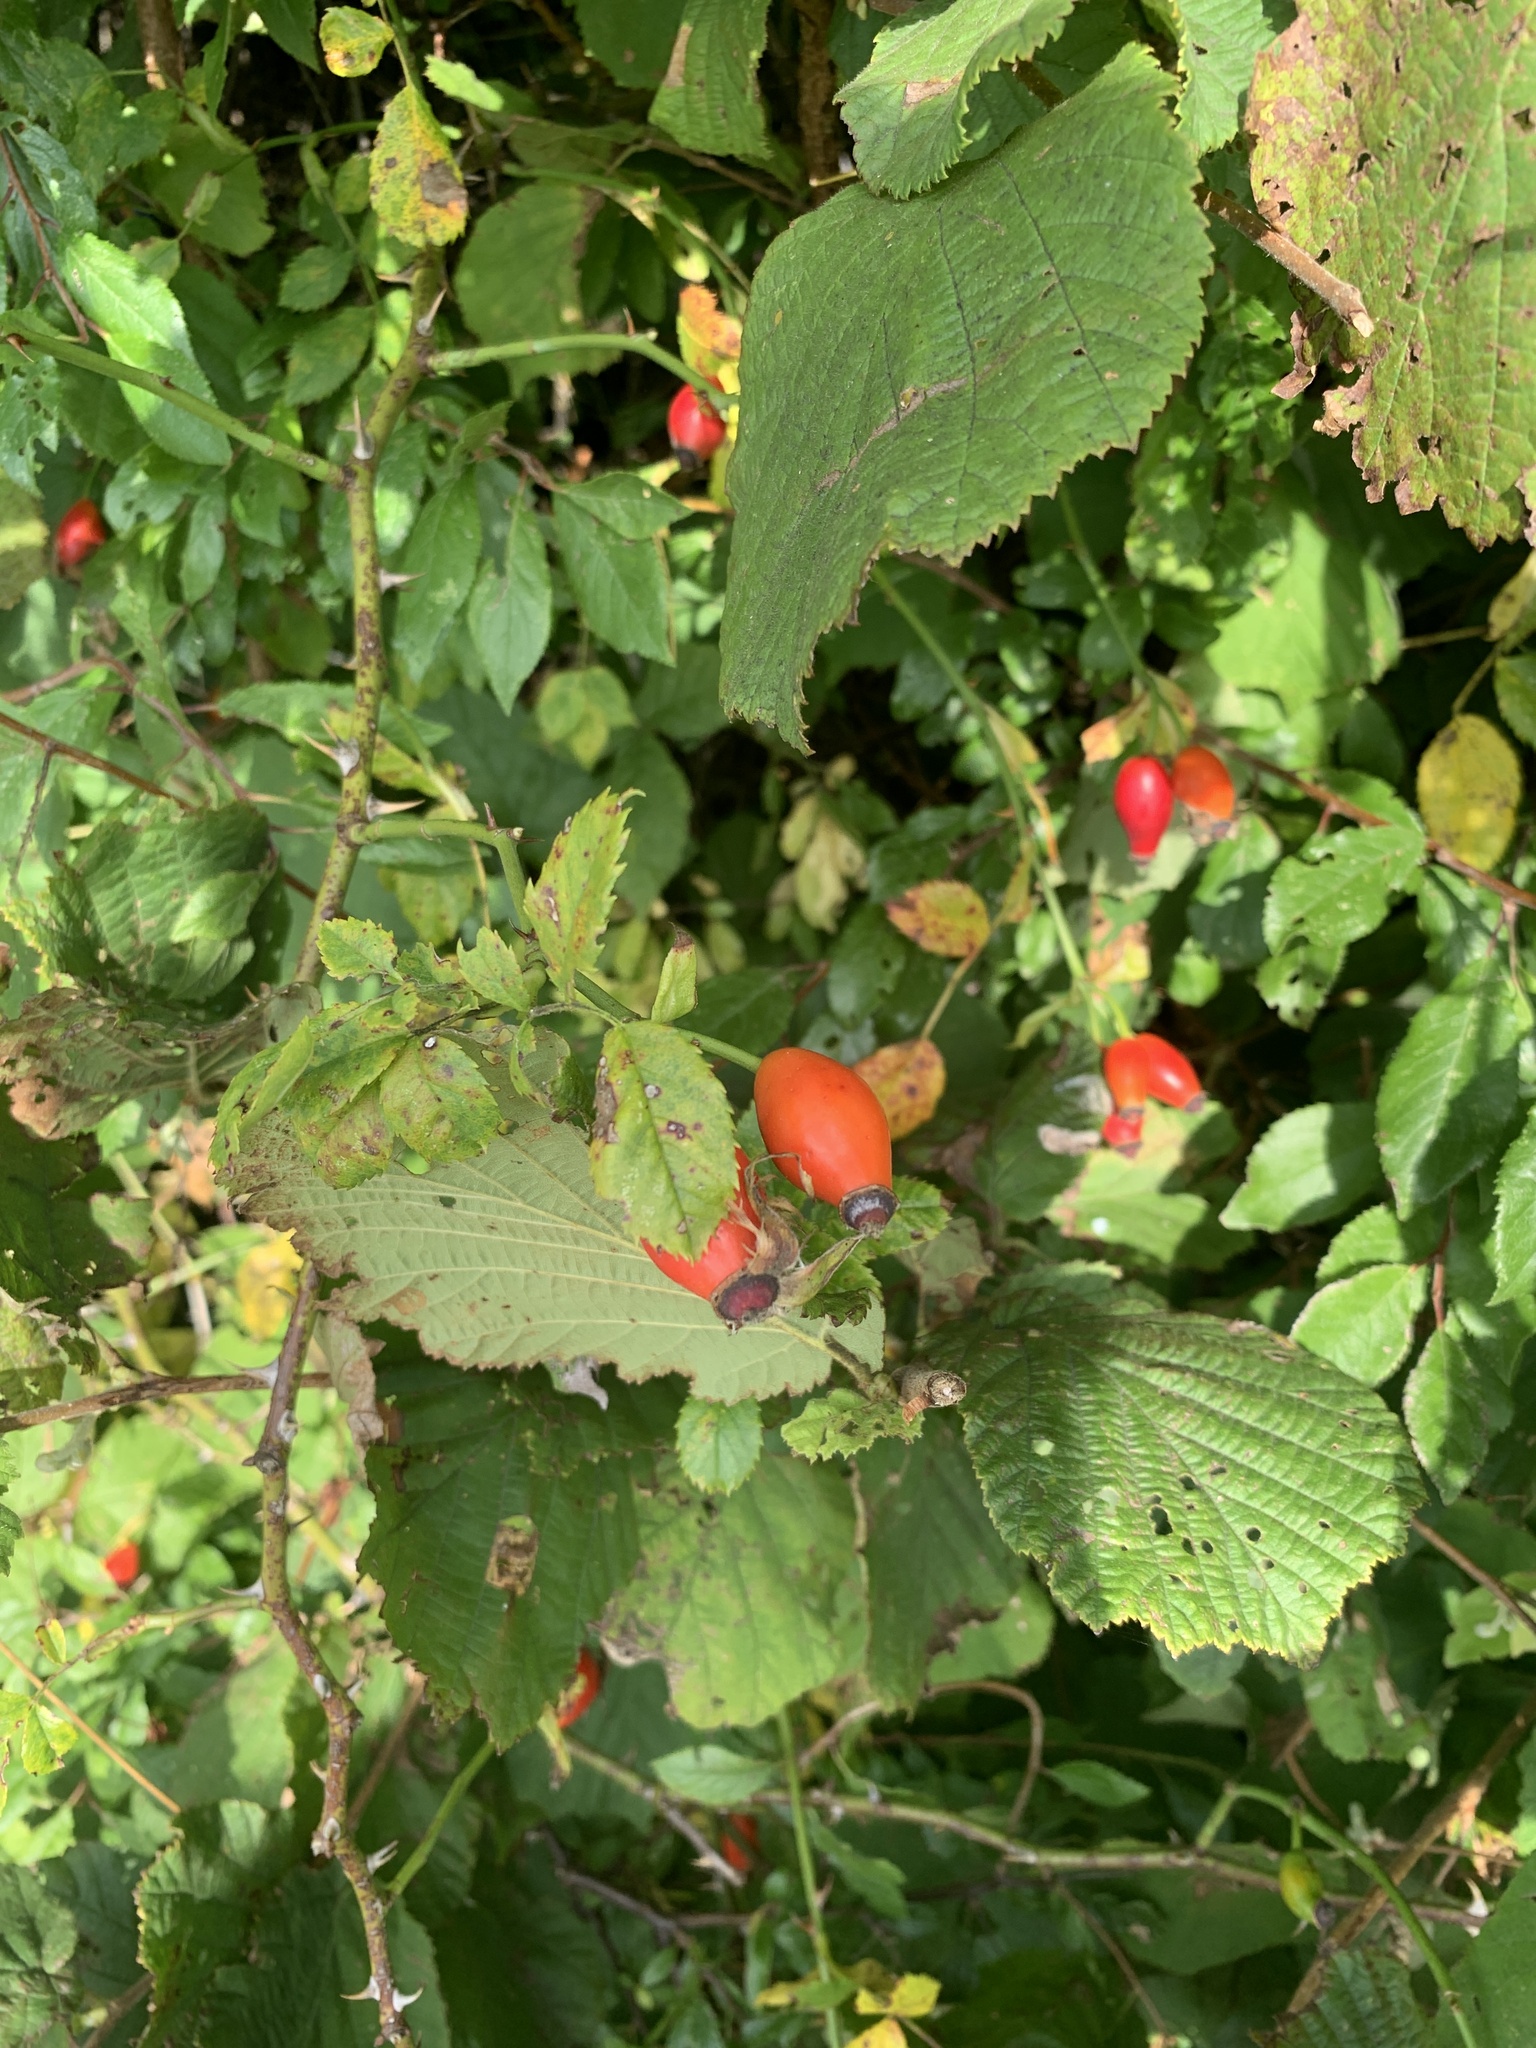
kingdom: Plantae
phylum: Tracheophyta
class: Magnoliopsida
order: Rosales
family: Rosaceae
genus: Rosa
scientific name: Rosa canina
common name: Dog rose
